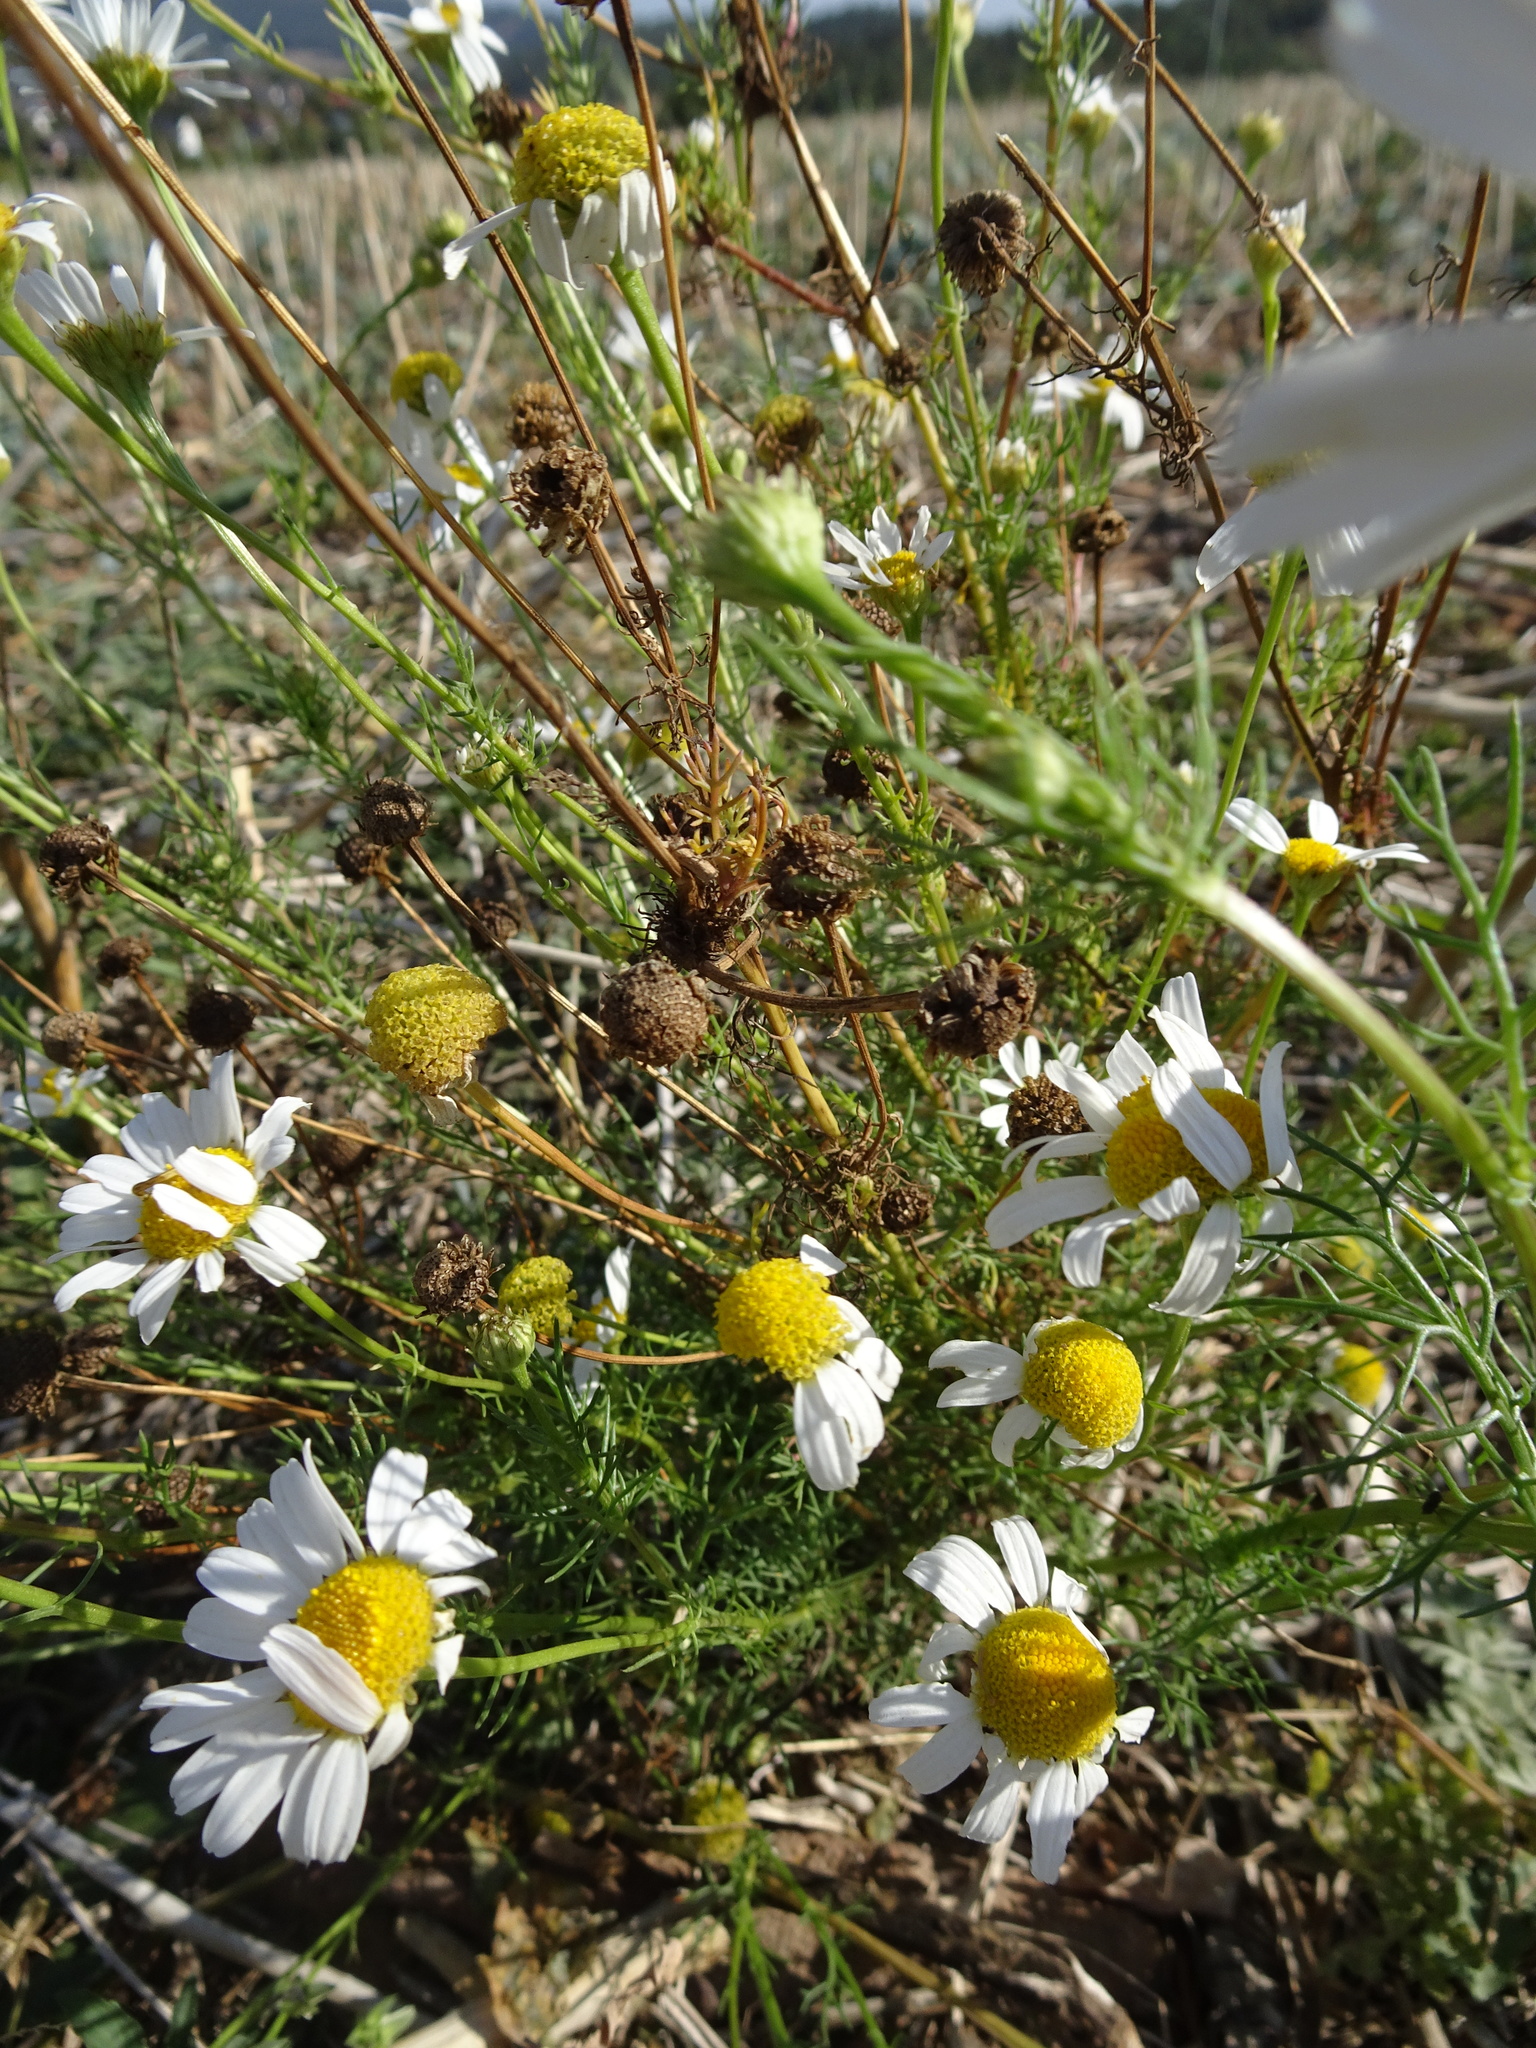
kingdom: Plantae
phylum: Tracheophyta
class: Magnoliopsida
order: Asterales
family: Asteraceae
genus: Tripleurospermum
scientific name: Tripleurospermum inodorum
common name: Scentless mayweed
